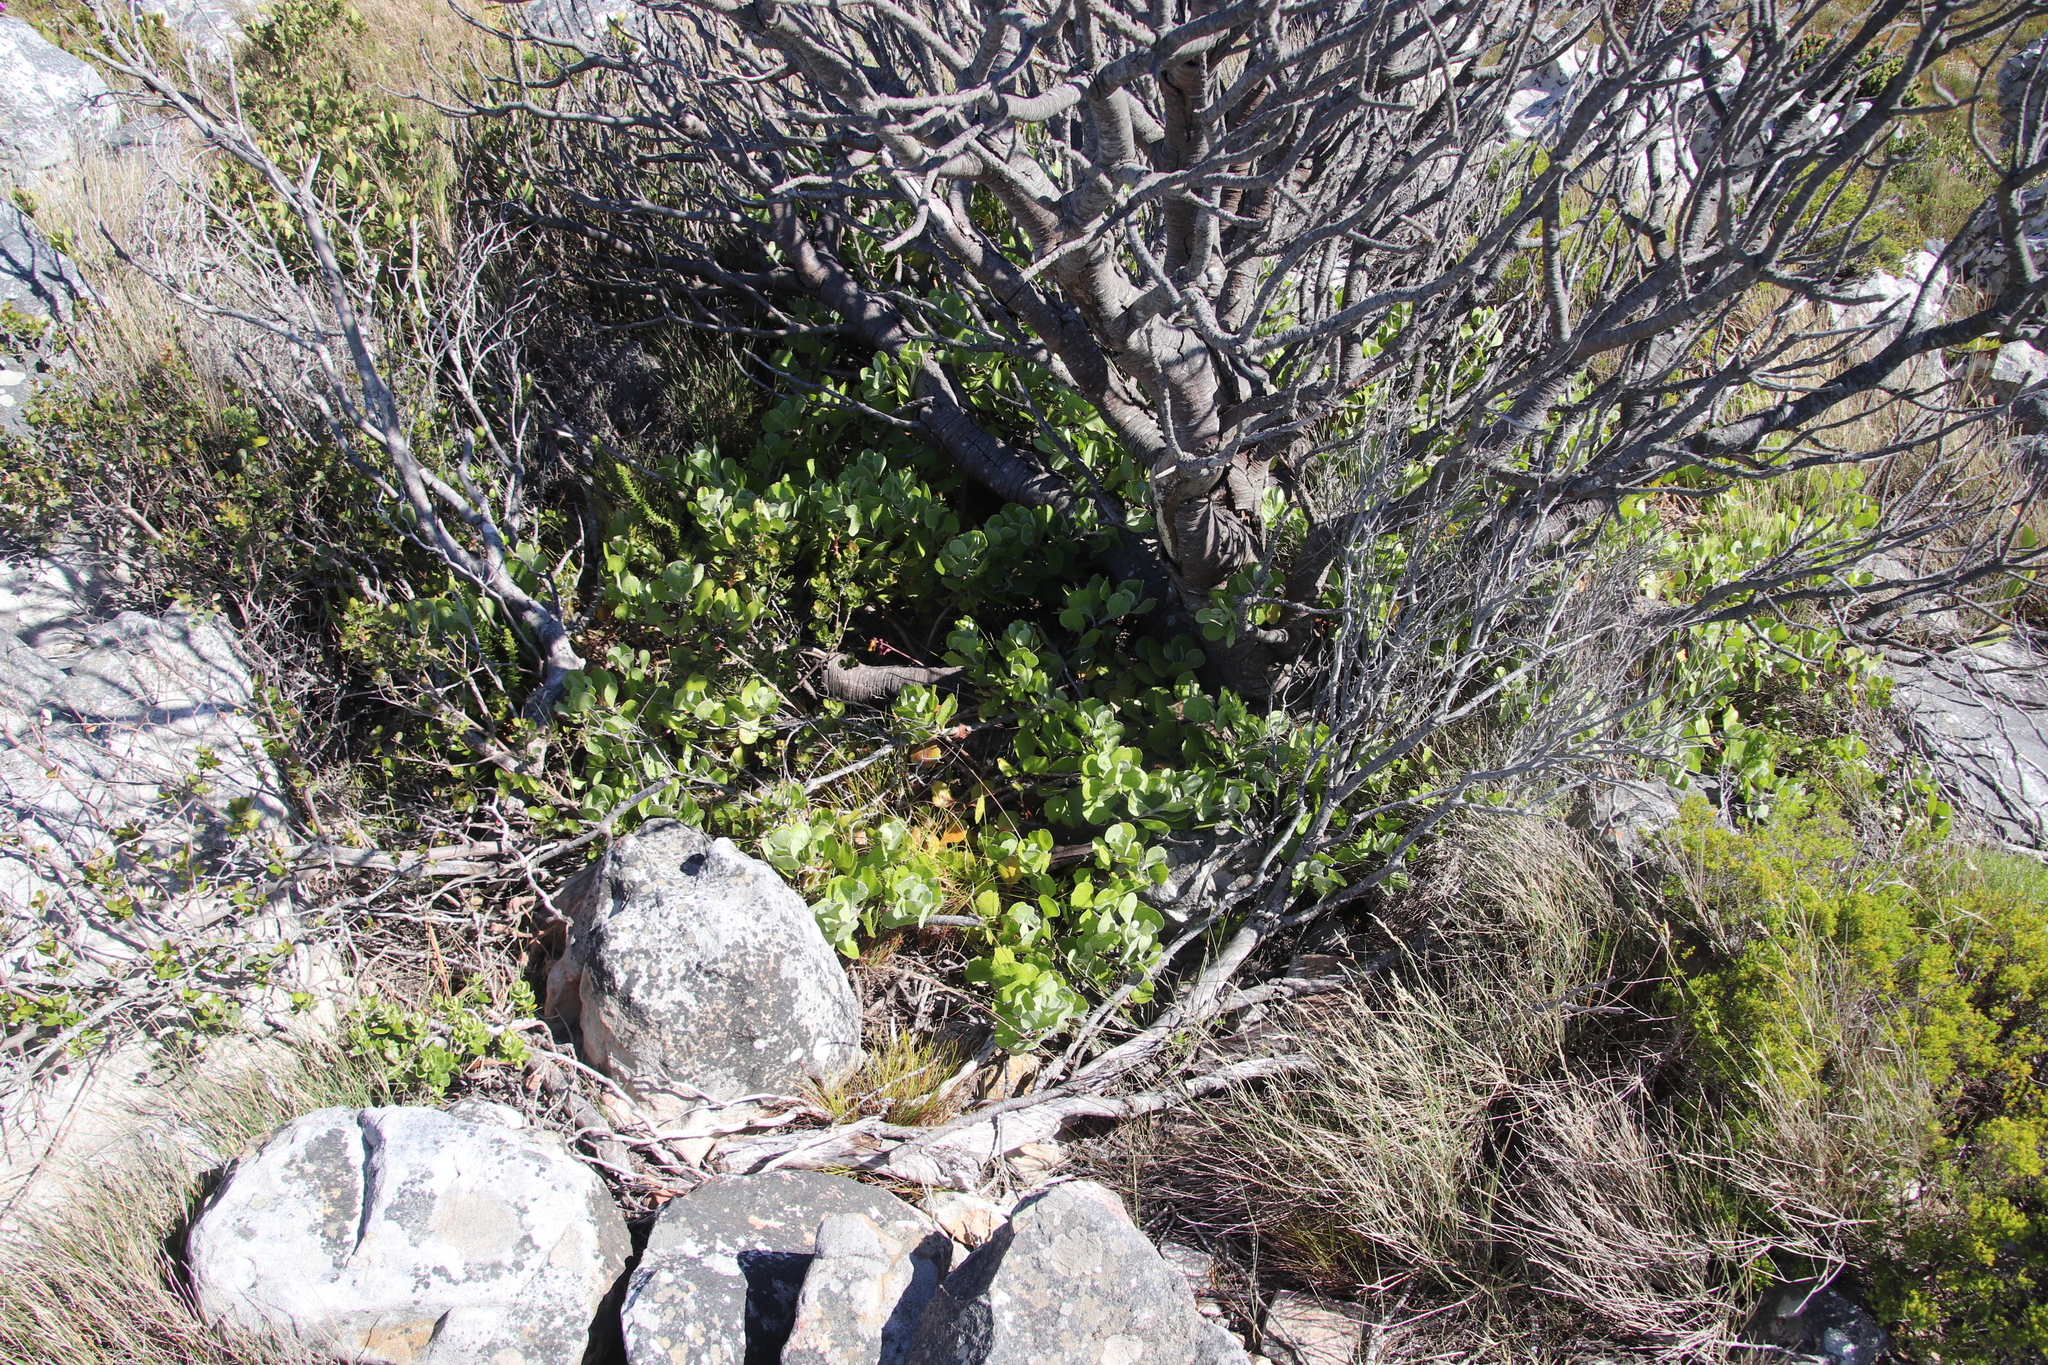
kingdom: Plantae
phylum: Tracheophyta
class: Magnoliopsida
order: Asterales
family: Asteraceae
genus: Osteospermum
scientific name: Osteospermum moniliferum
